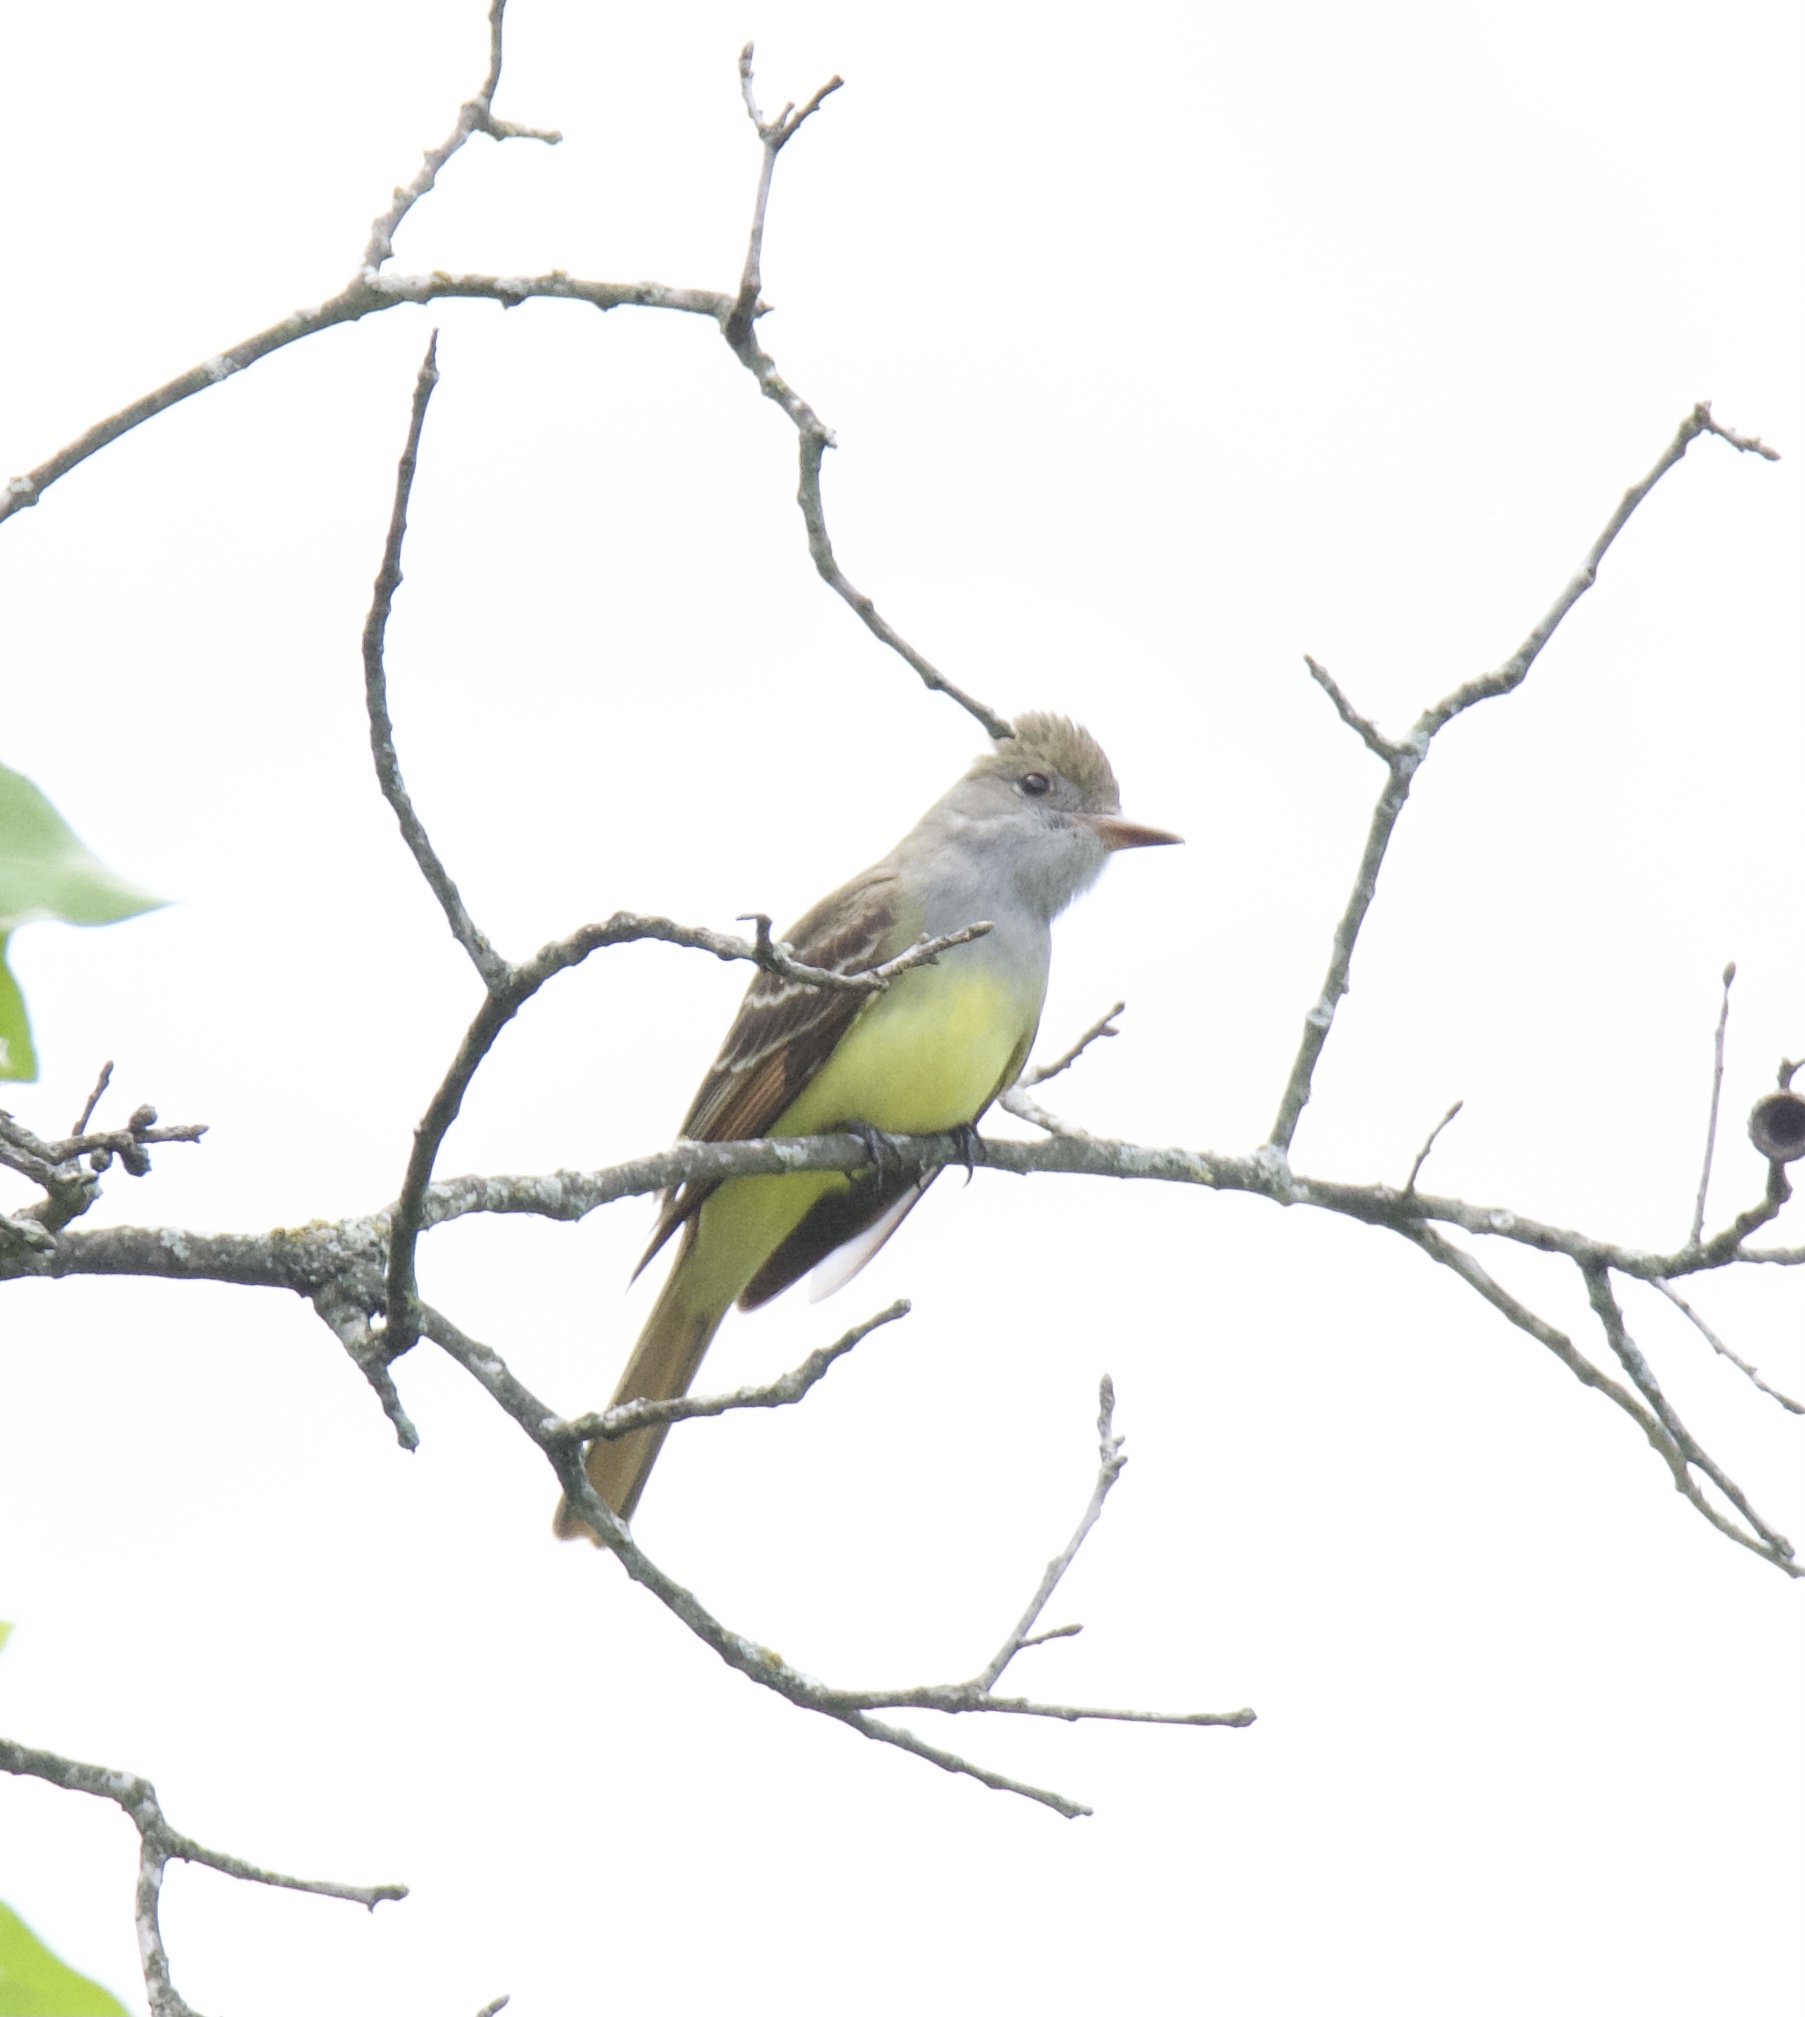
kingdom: Animalia
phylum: Chordata
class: Aves
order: Passeriformes
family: Tyrannidae
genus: Myiarchus
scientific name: Myiarchus crinitus
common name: Great crested flycatcher
